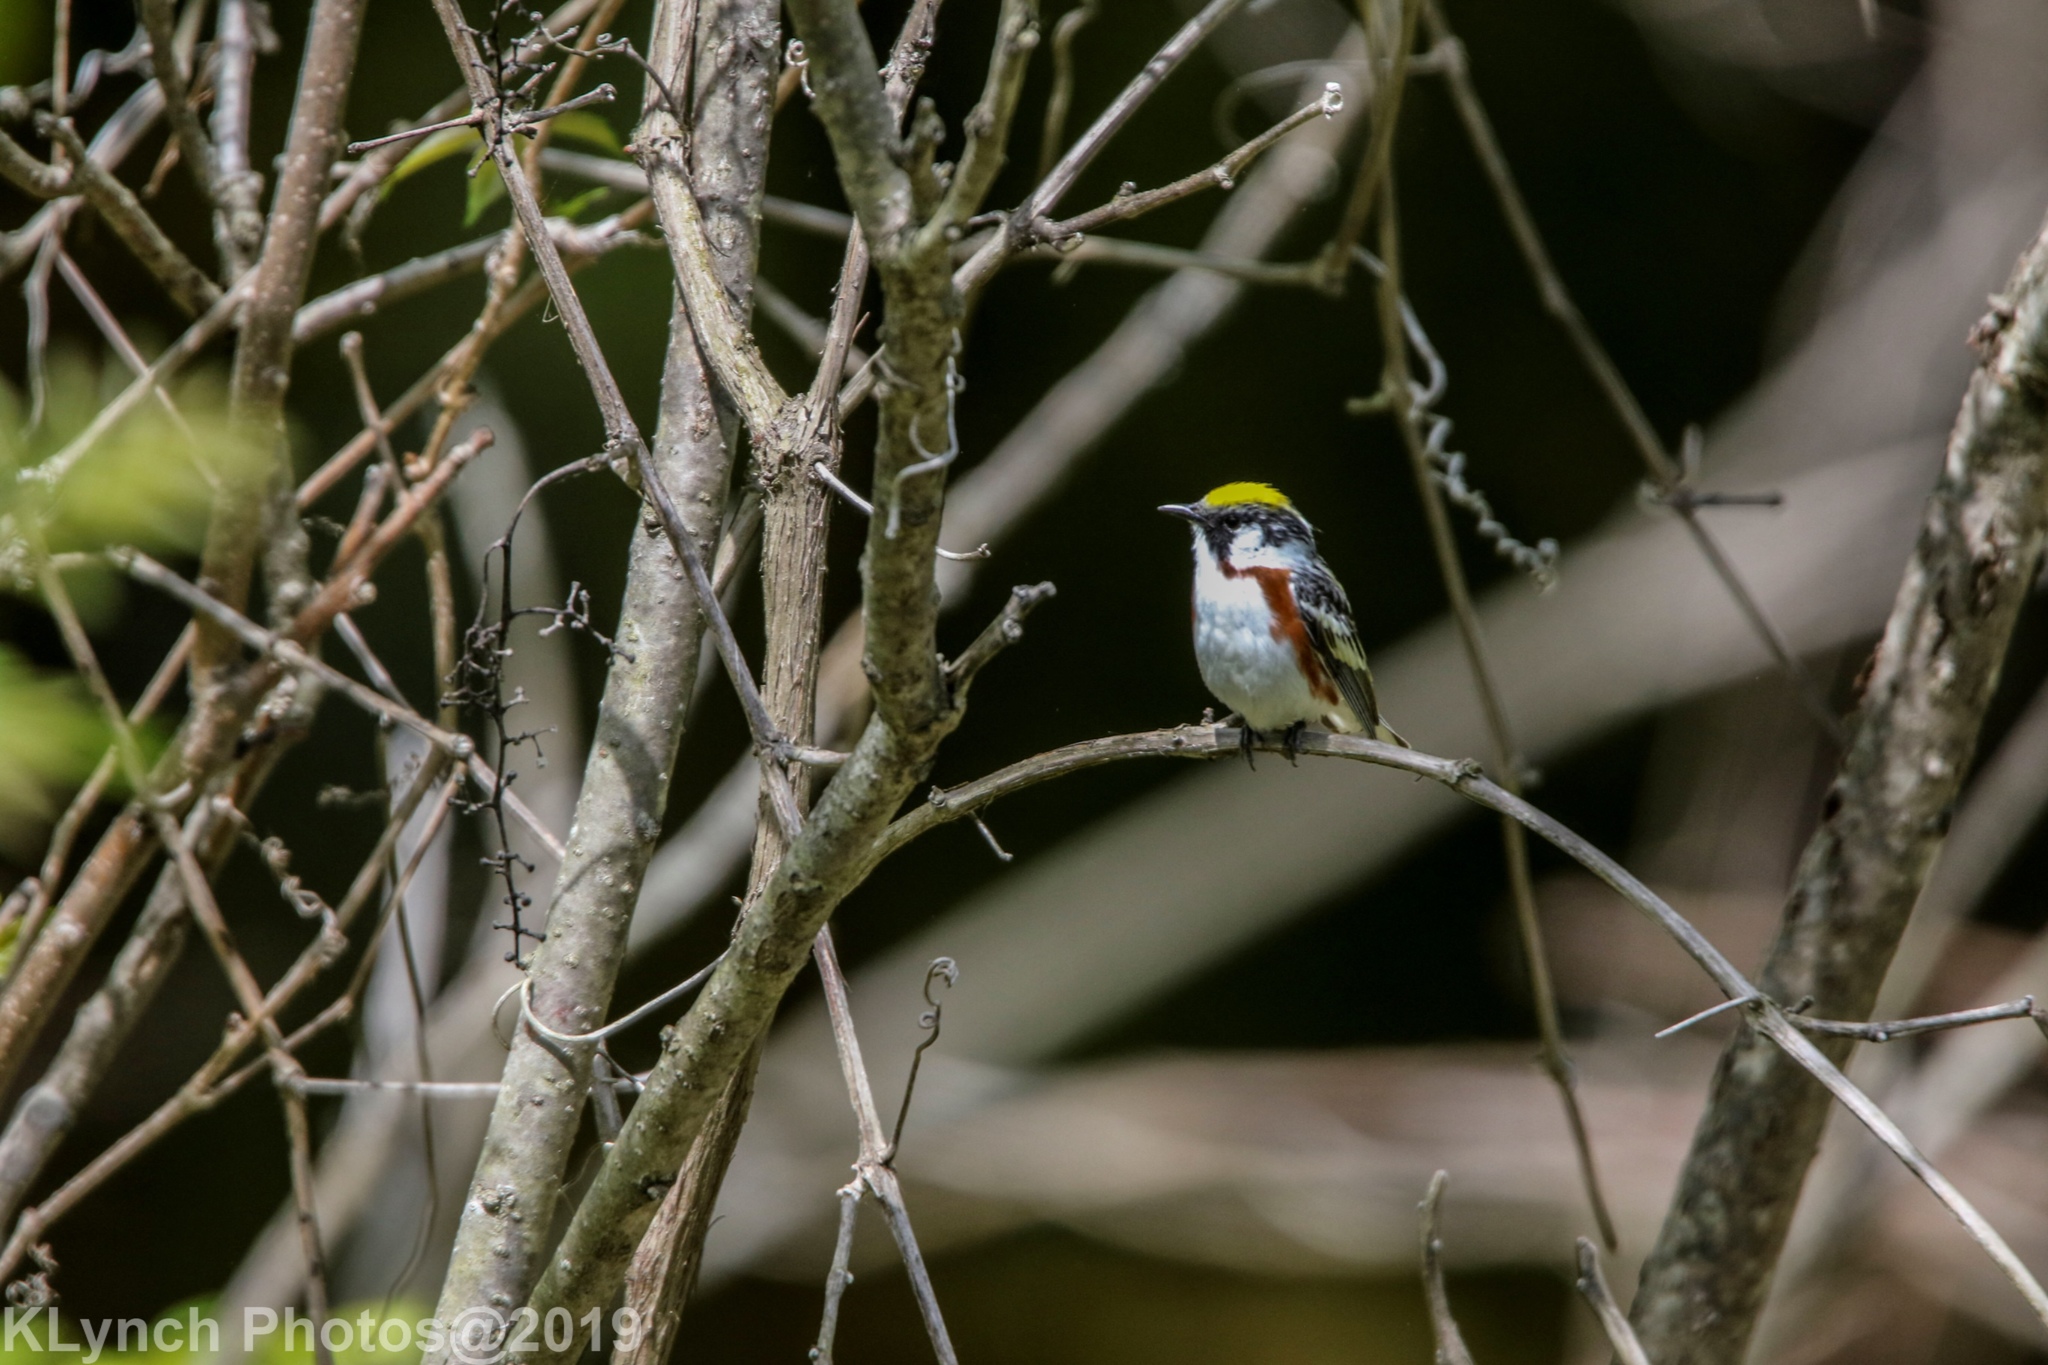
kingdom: Animalia
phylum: Chordata
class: Aves
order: Passeriformes
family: Parulidae
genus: Setophaga
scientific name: Setophaga pensylvanica
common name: Chestnut-sided warbler
